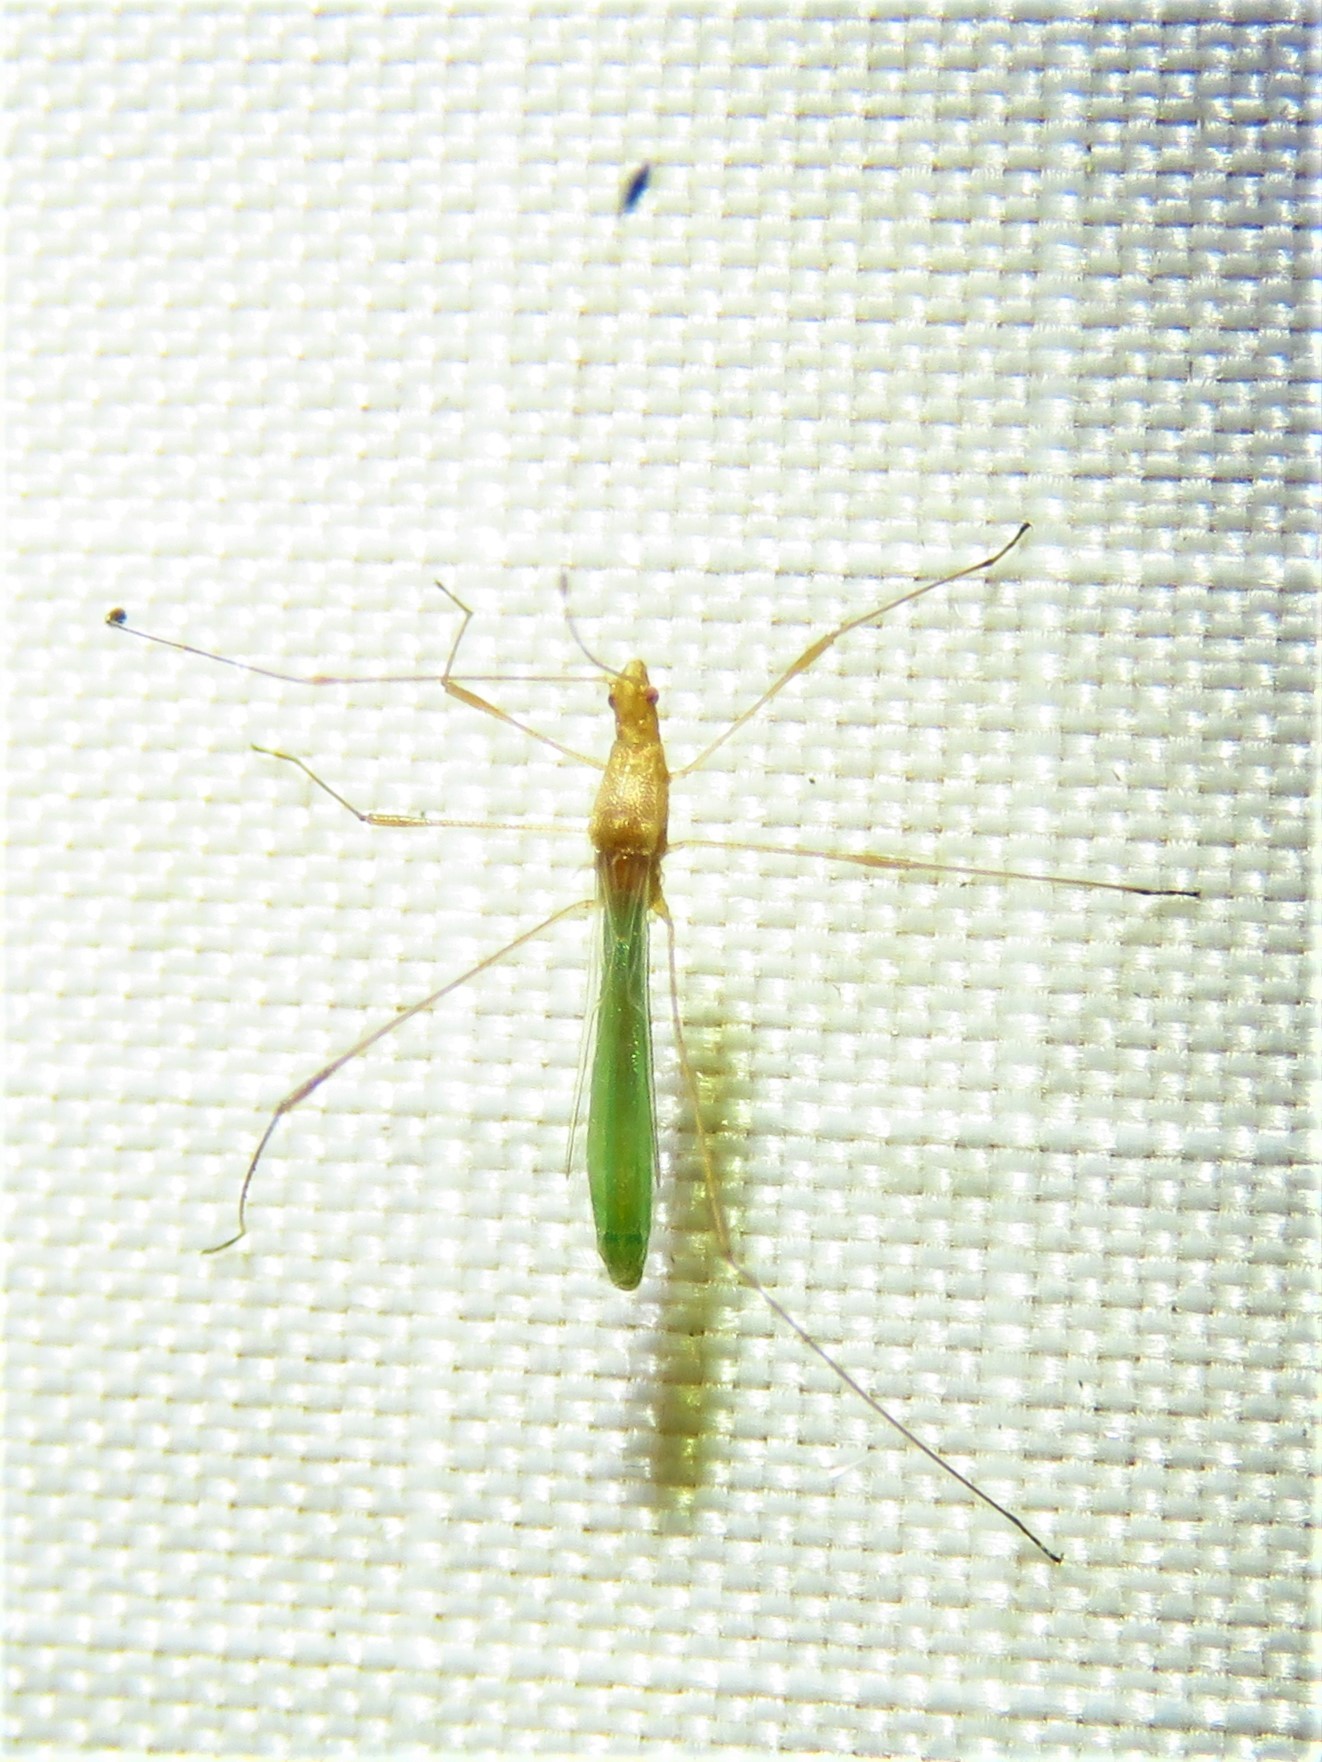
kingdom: Animalia
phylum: Arthropoda
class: Insecta
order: Hemiptera
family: Berytidae
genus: Metacanthus
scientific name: Metacanthus multispinus
